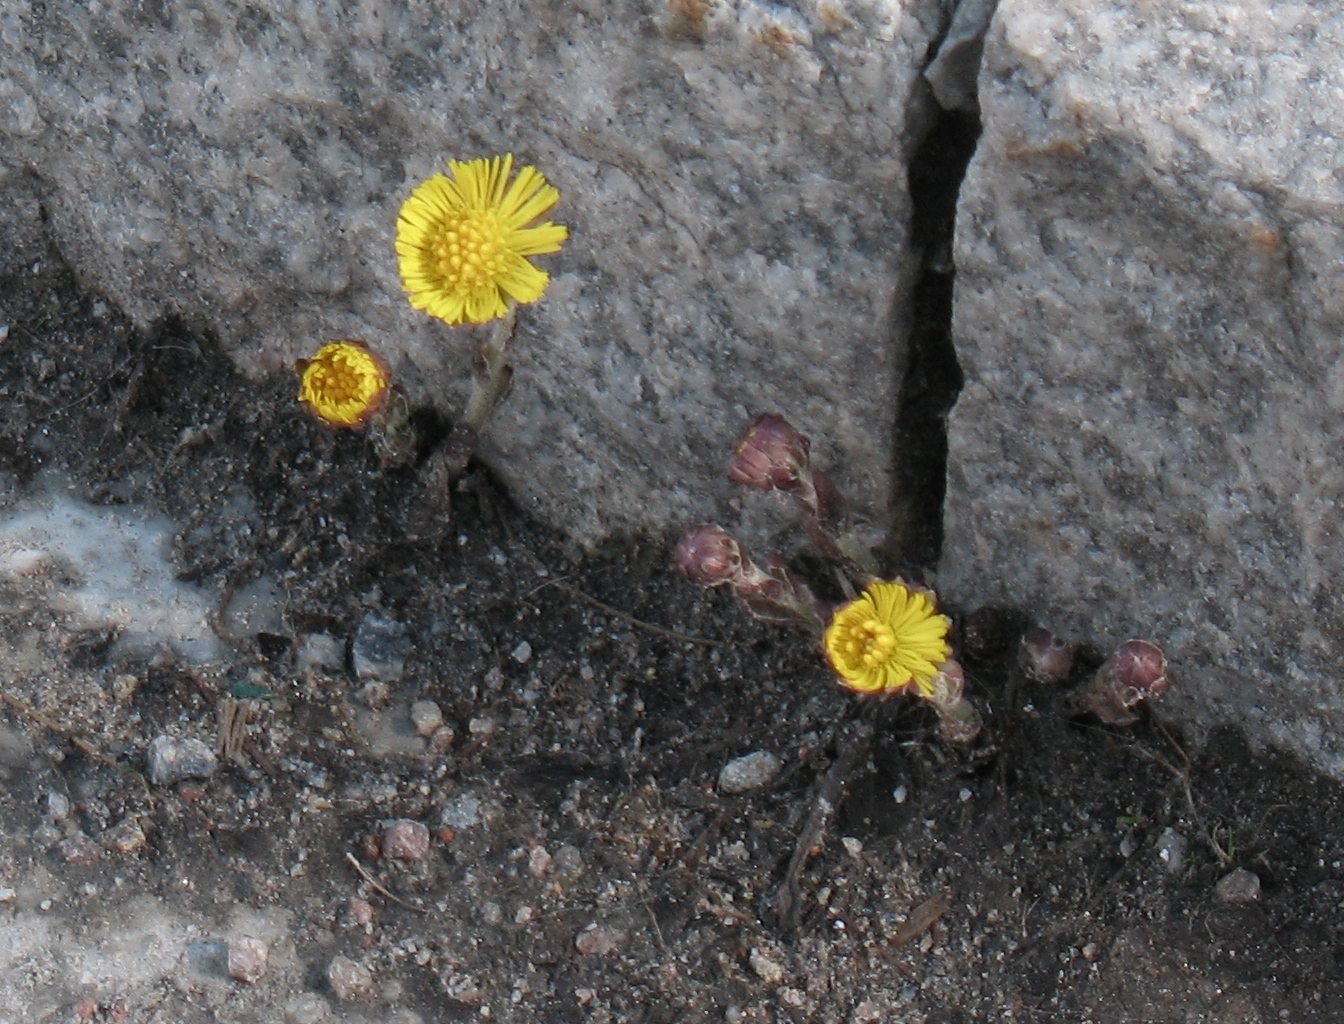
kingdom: Plantae
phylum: Tracheophyta
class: Magnoliopsida
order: Asterales
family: Asteraceae
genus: Tussilago
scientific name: Tussilago farfara
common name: Coltsfoot
